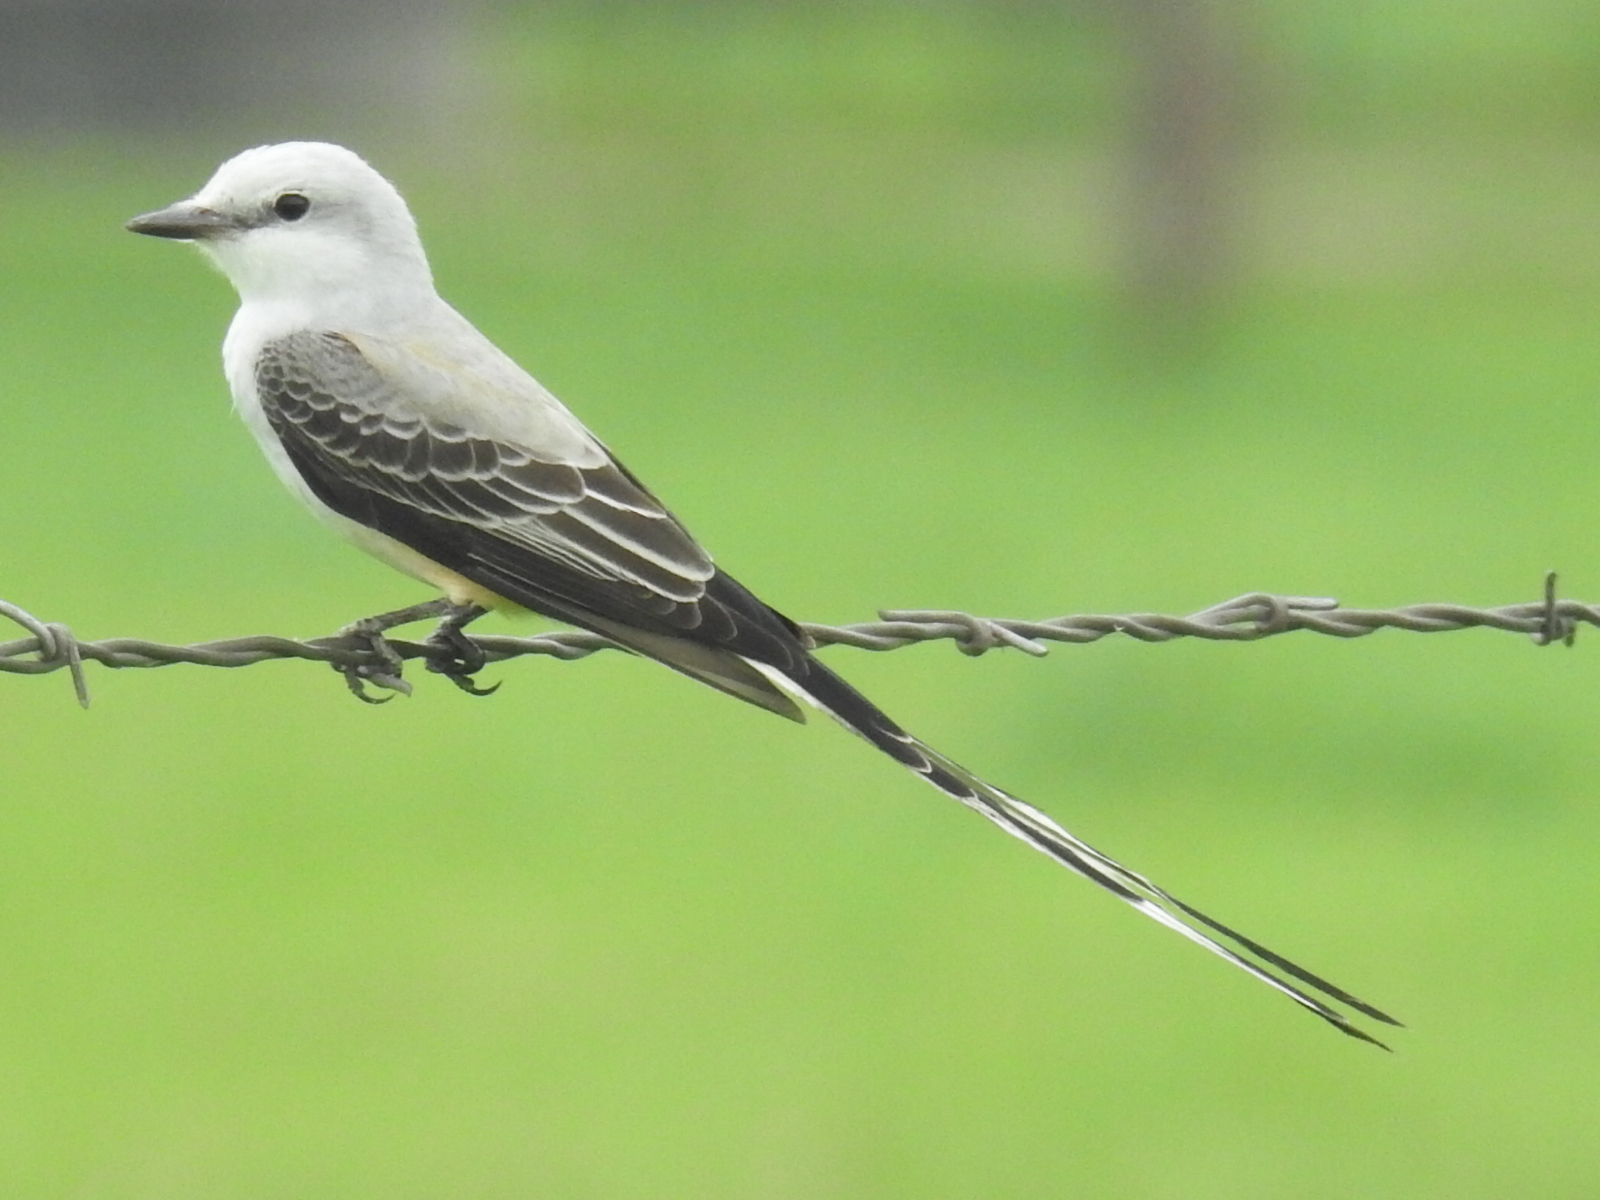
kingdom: Animalia
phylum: Chordata
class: Aves
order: Passeriformes
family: Tyrannidae
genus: Tyrannus
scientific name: Tyrannus forficatus
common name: Scissor-tailed flycatcher
